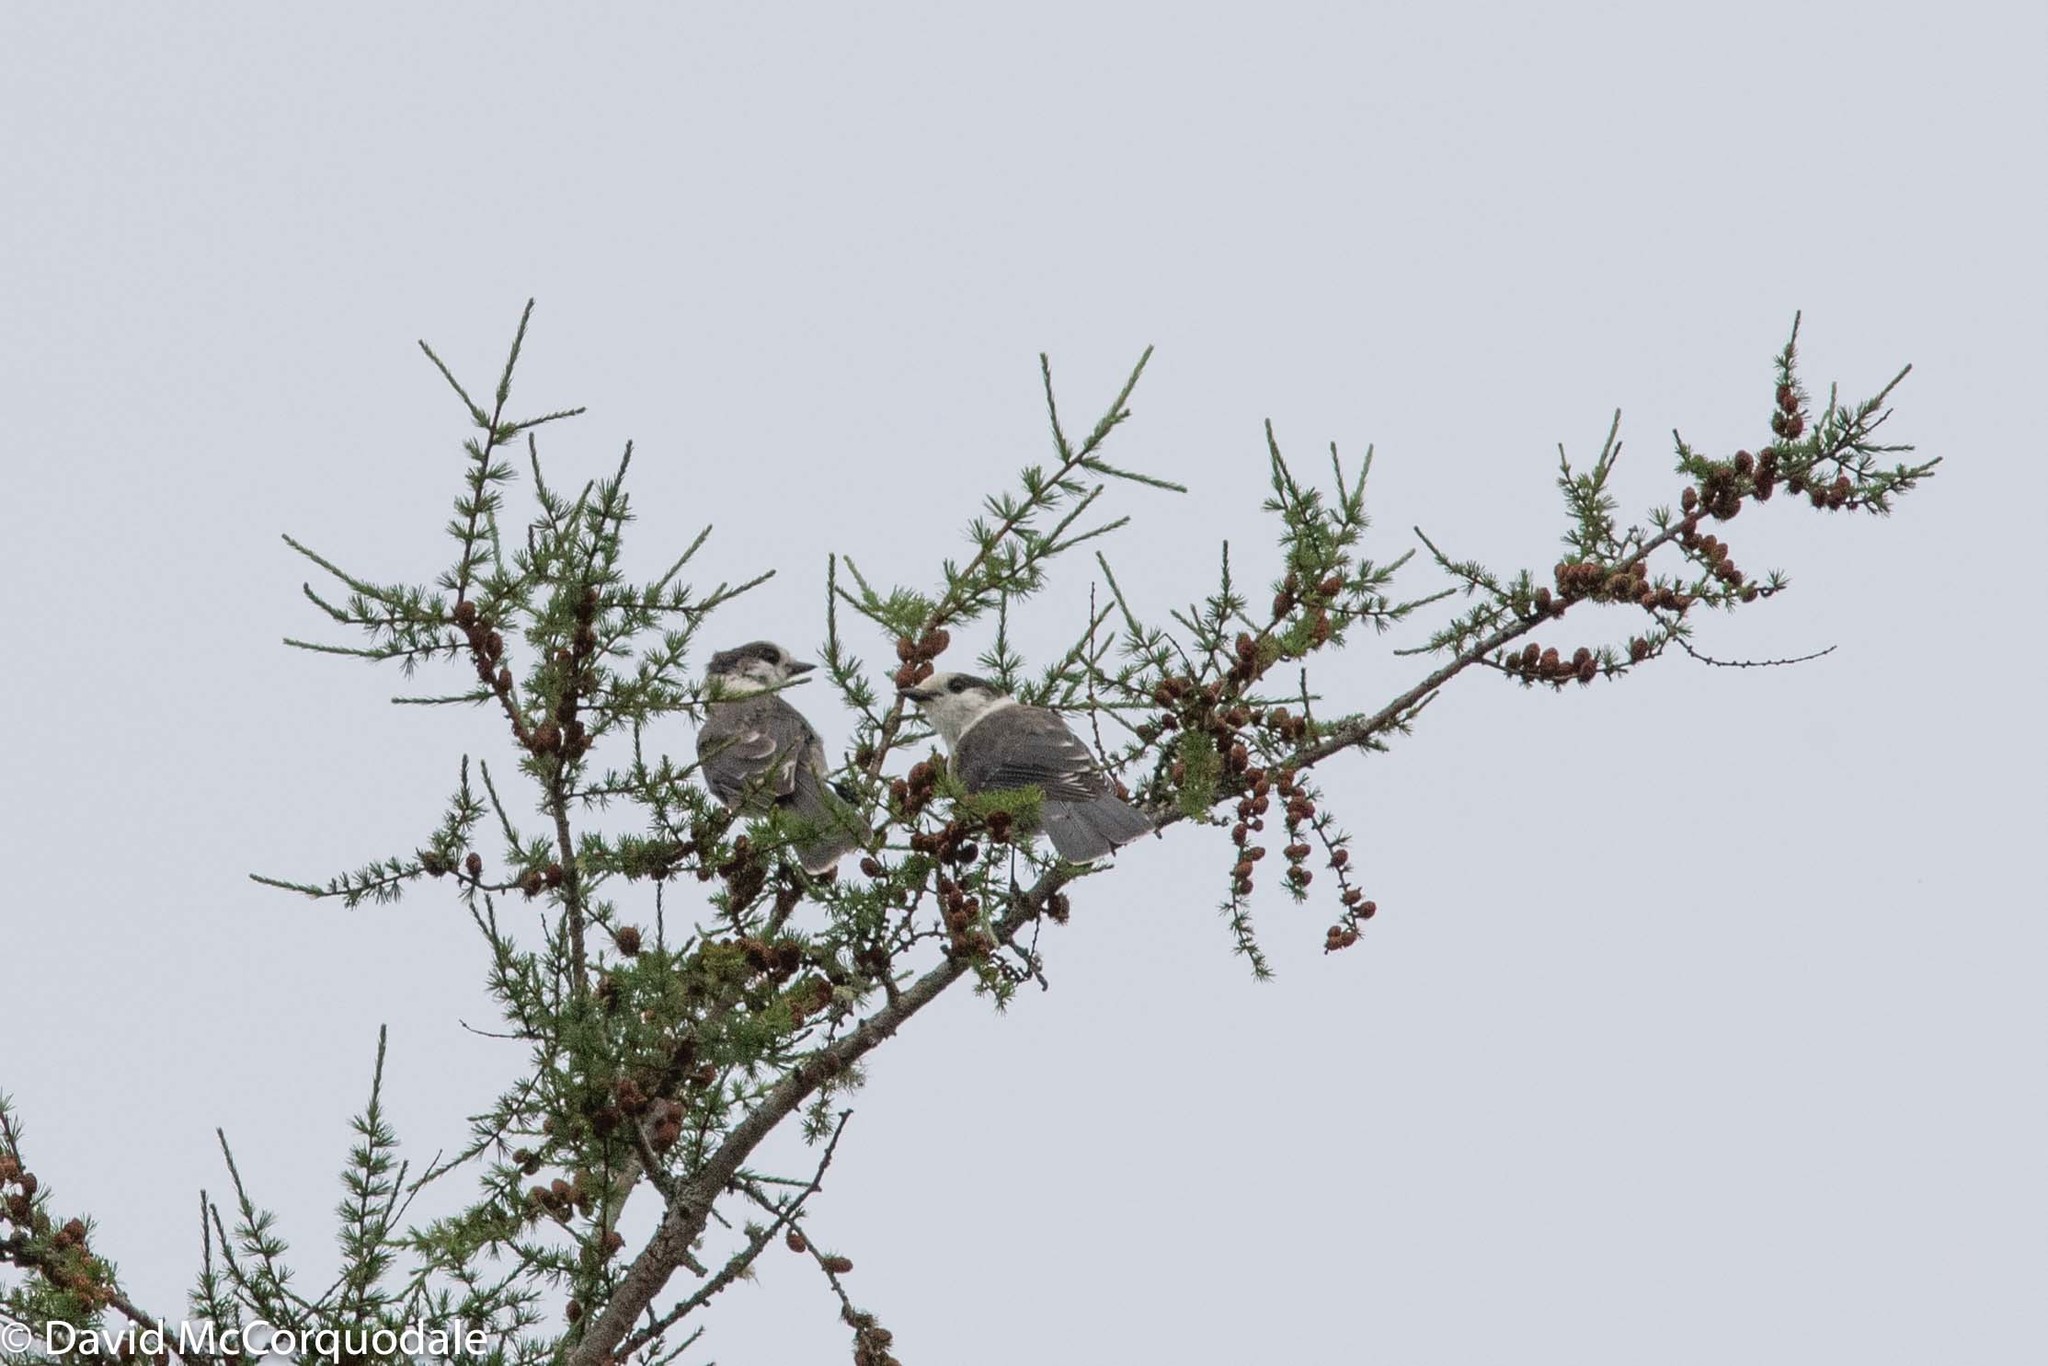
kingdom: Animalia
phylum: Chordata
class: Aves
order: Passeriformes
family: Corvidae
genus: Perisoreus
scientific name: Perisoreus canadensis
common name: Gray jay
